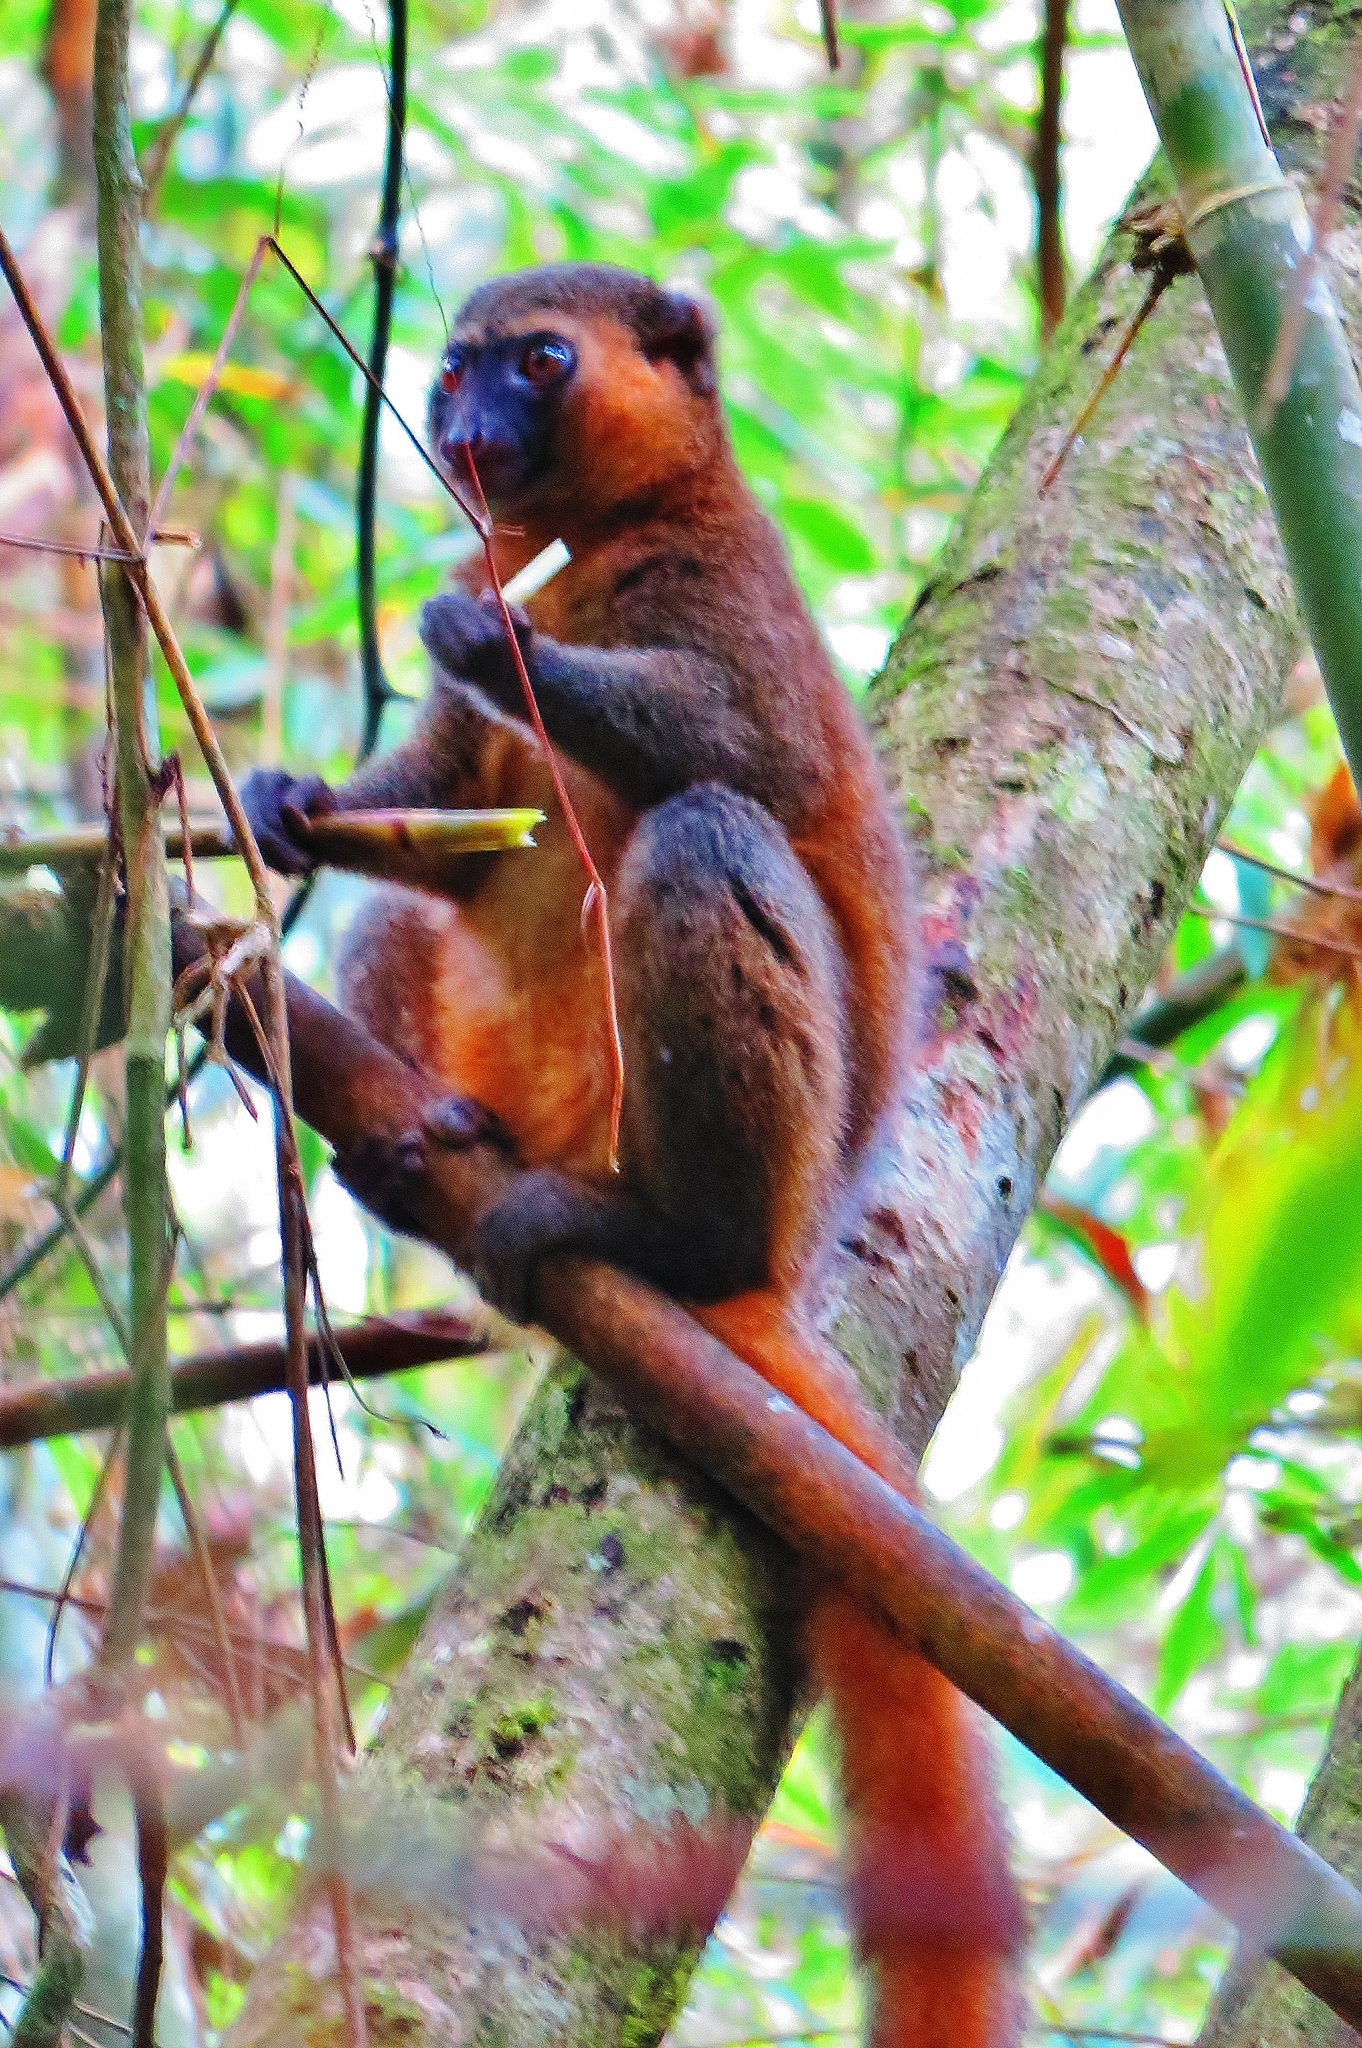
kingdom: Animalia
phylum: Chordata
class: Mammalia
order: Primates
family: Lemuridae
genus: Hapalemur
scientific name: Hapalemur aureus
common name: Golden bamboo lemur
